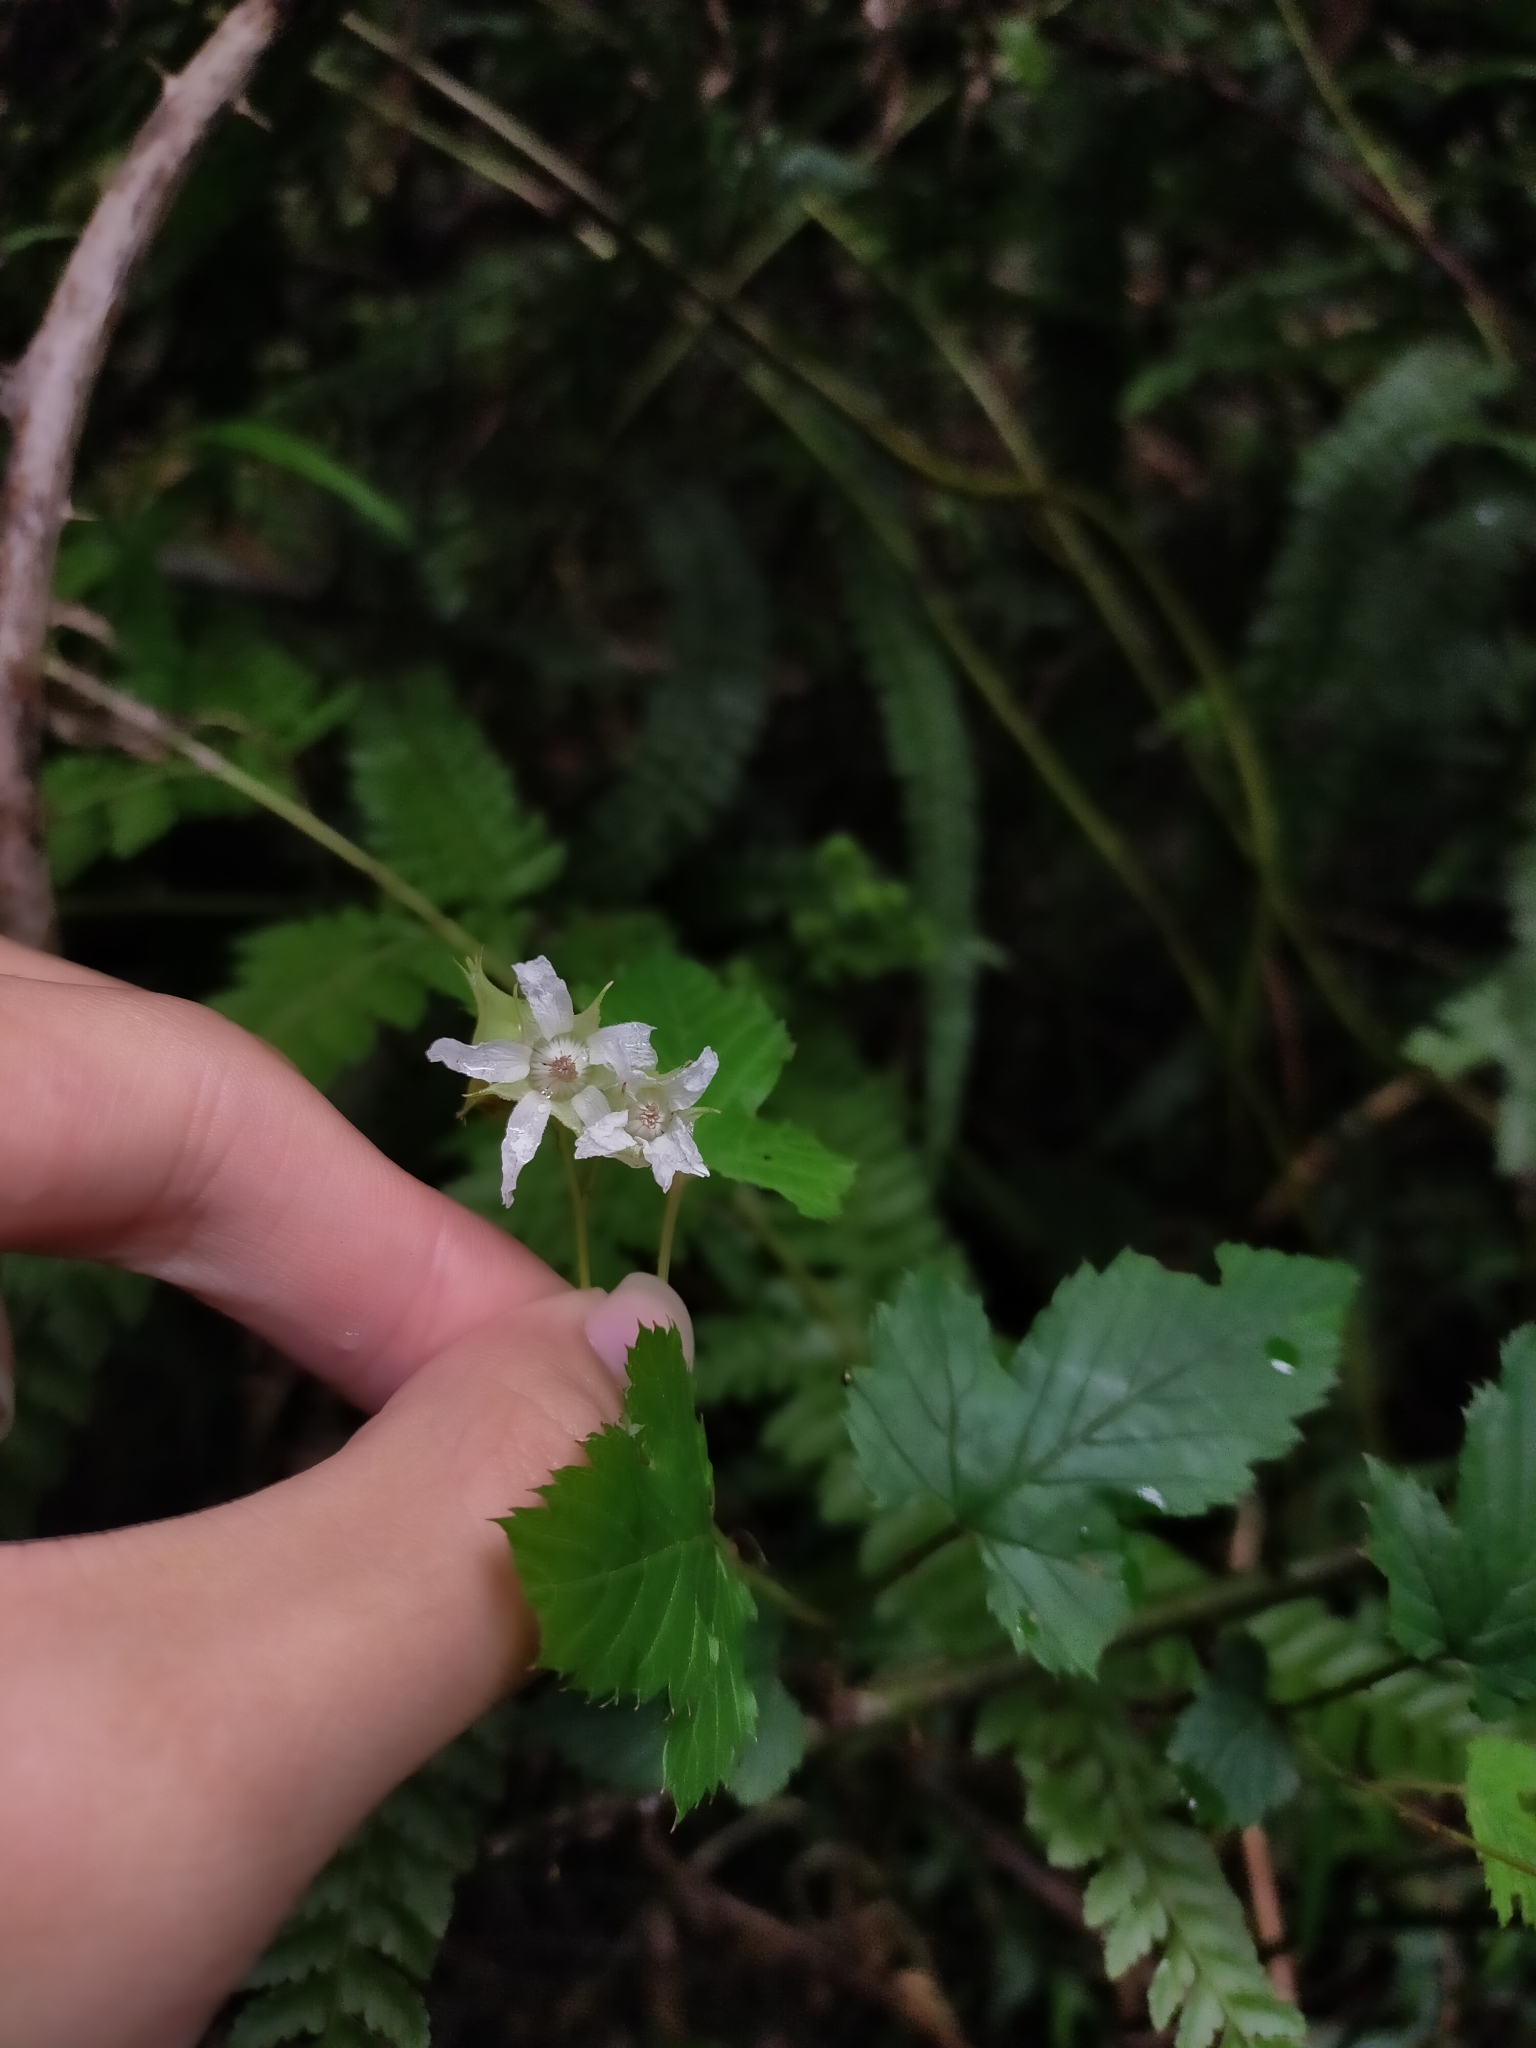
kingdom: Plantae
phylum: Tracheophyta
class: Magnoliopsida
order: Rosales
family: Rosaceae
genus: Rubus
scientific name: Rubus subcrataegifolius
